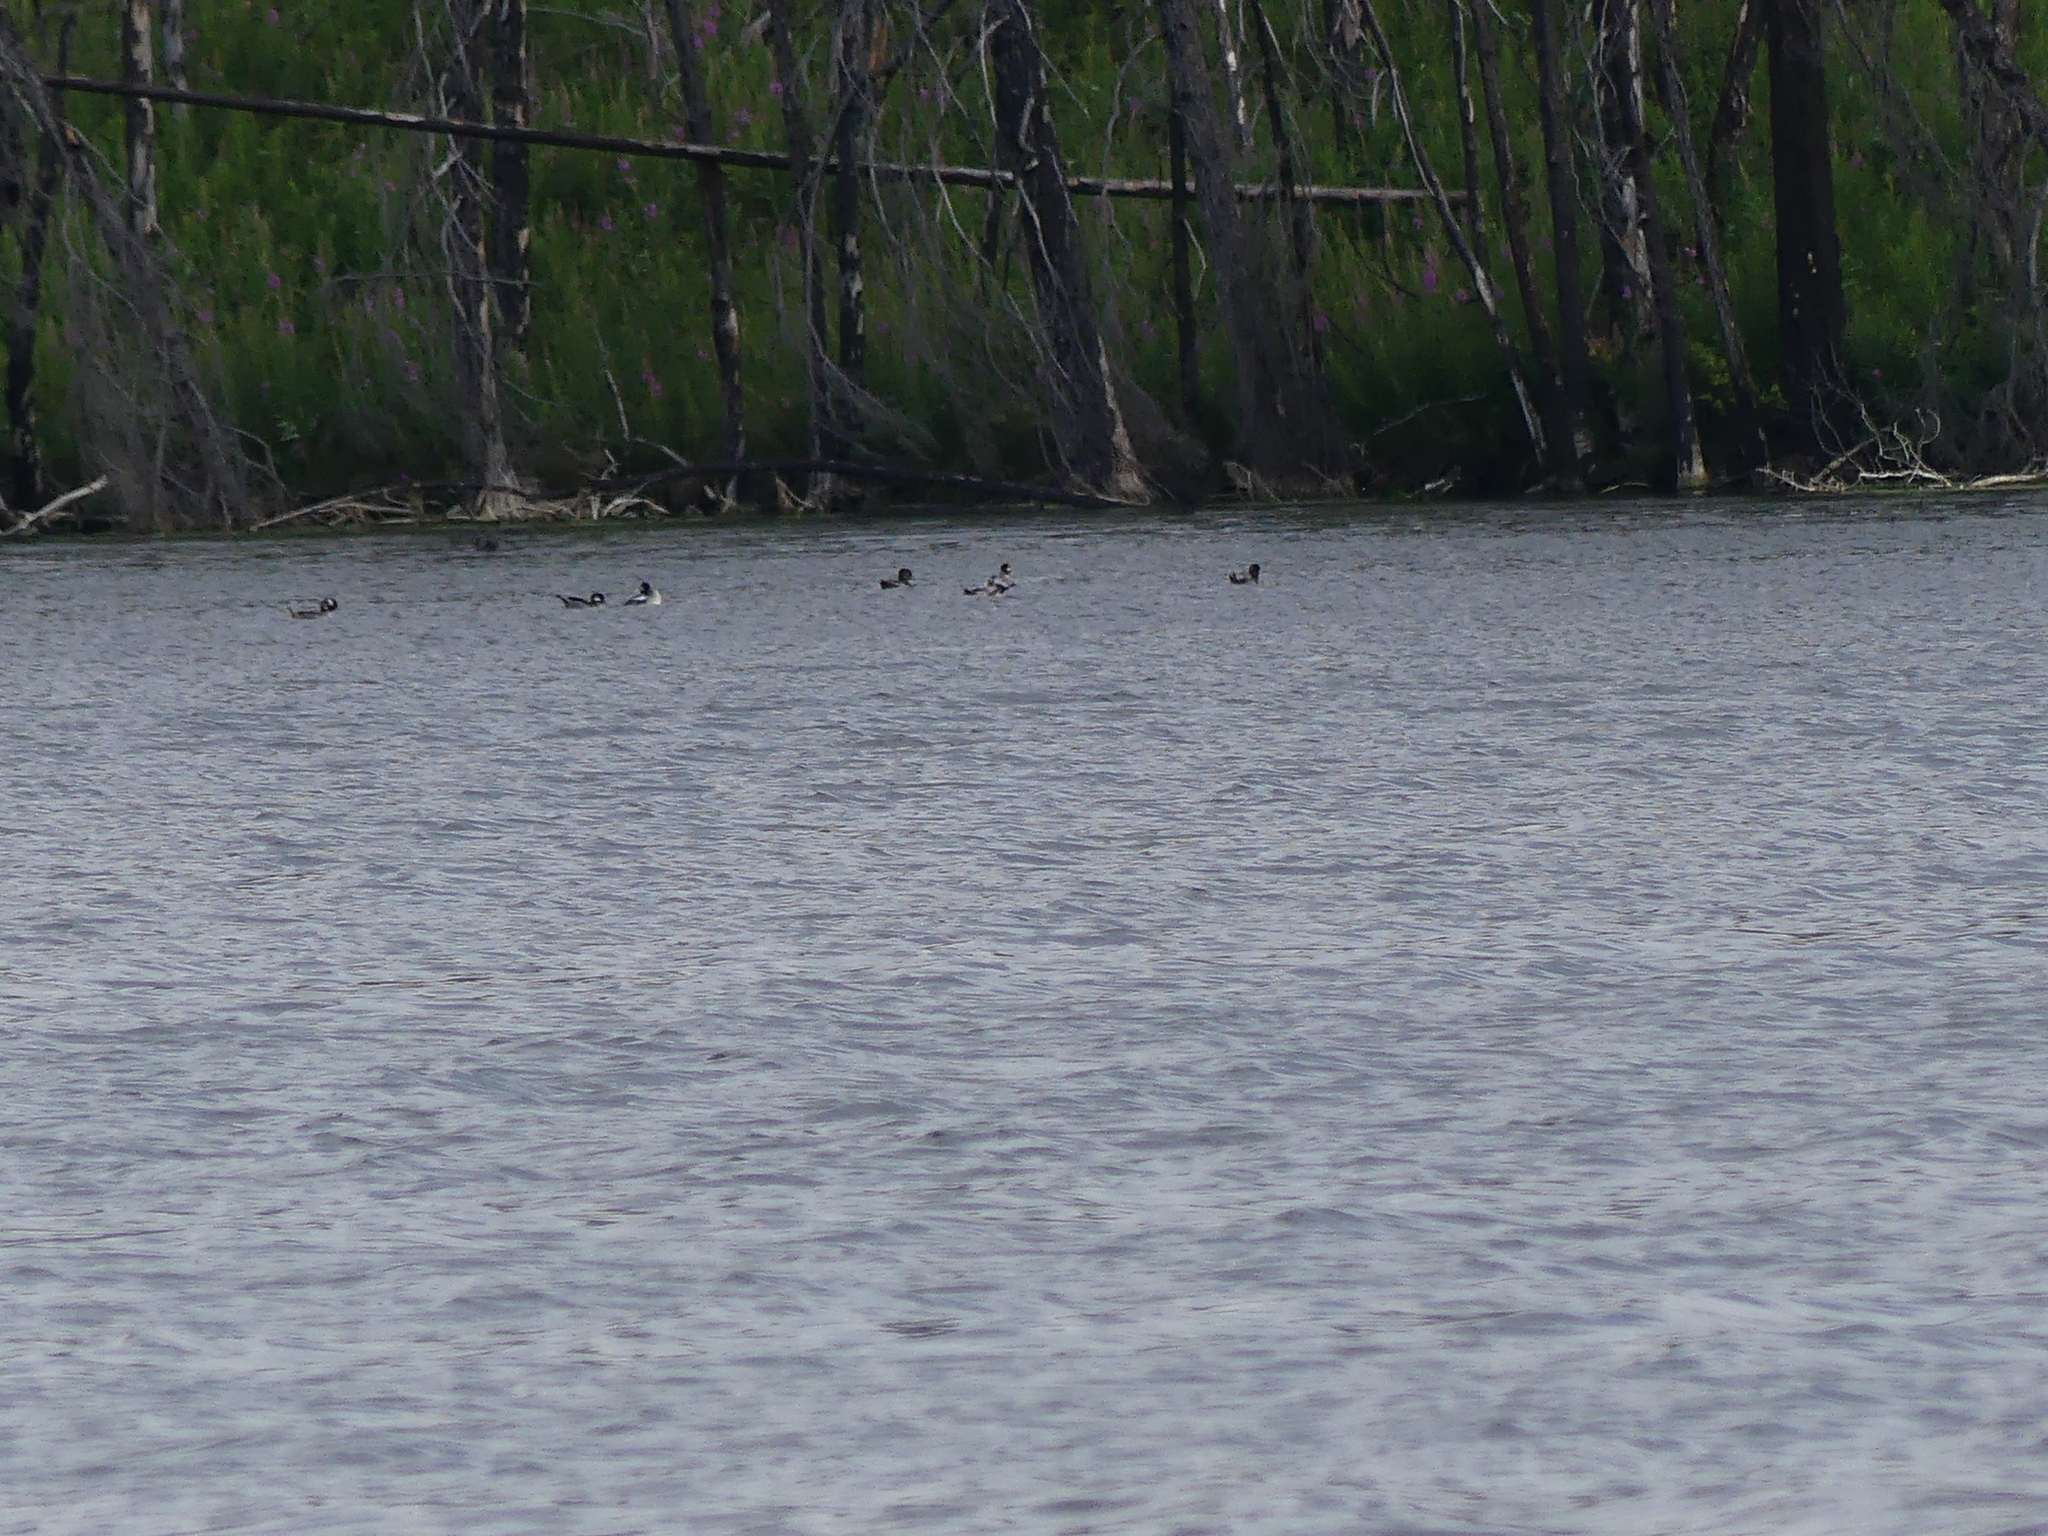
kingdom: Animalia
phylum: Chordata
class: Aves
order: Anseriformes
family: Anatidae
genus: Bucephala
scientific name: Bucephala albeola
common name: Bufflehead
